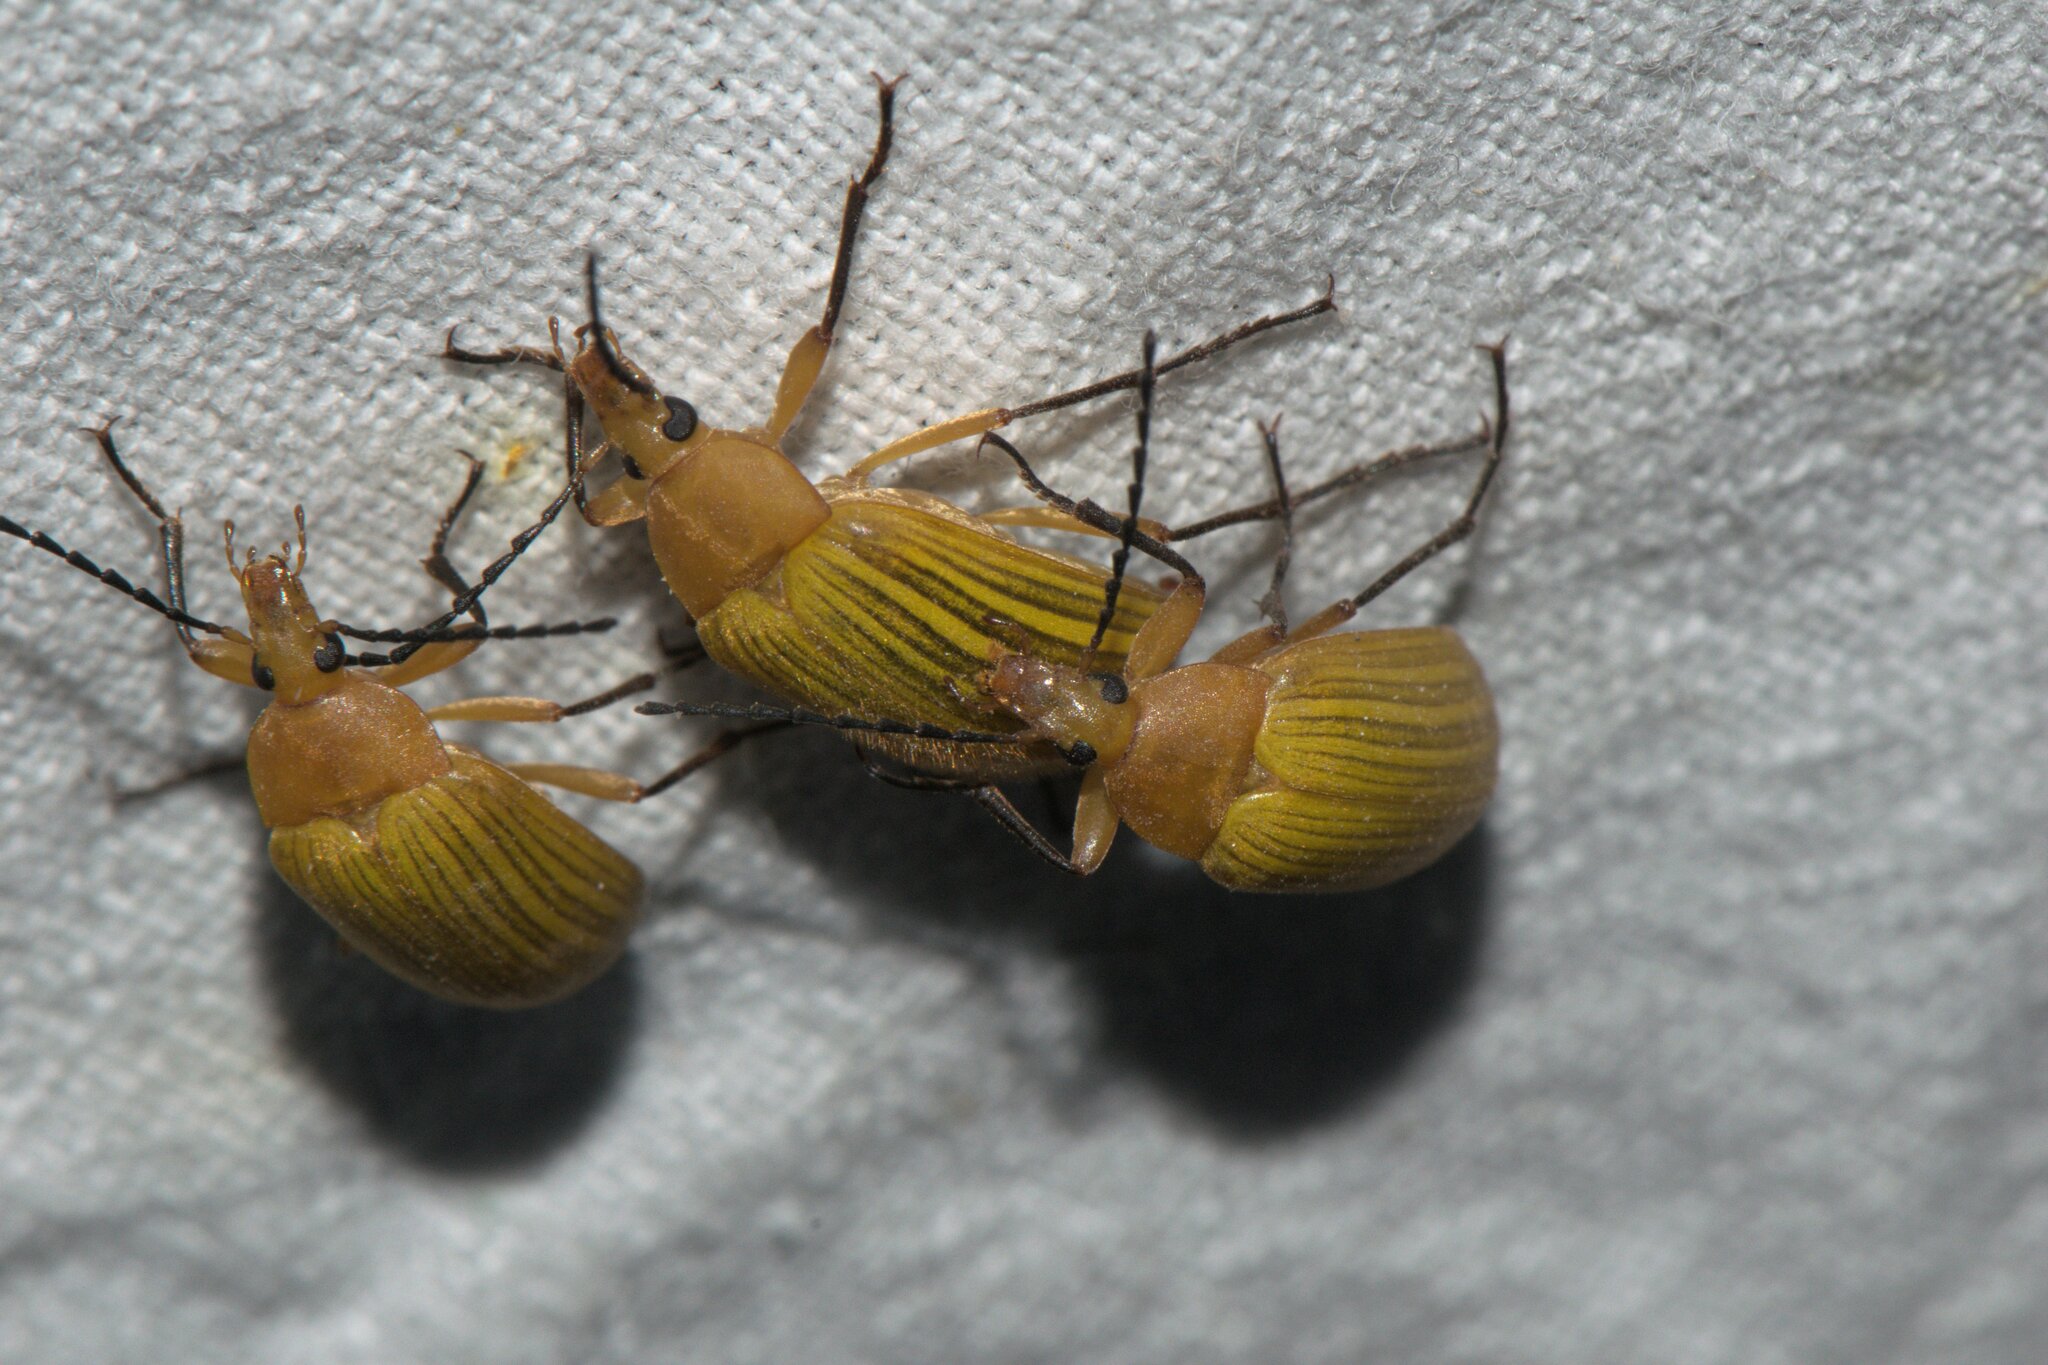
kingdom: Animalia
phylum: Arthropoda
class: Insecta
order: Coleoptera
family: Tenebrionidae
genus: Cistelomorpha
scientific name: Cistelomorpha
